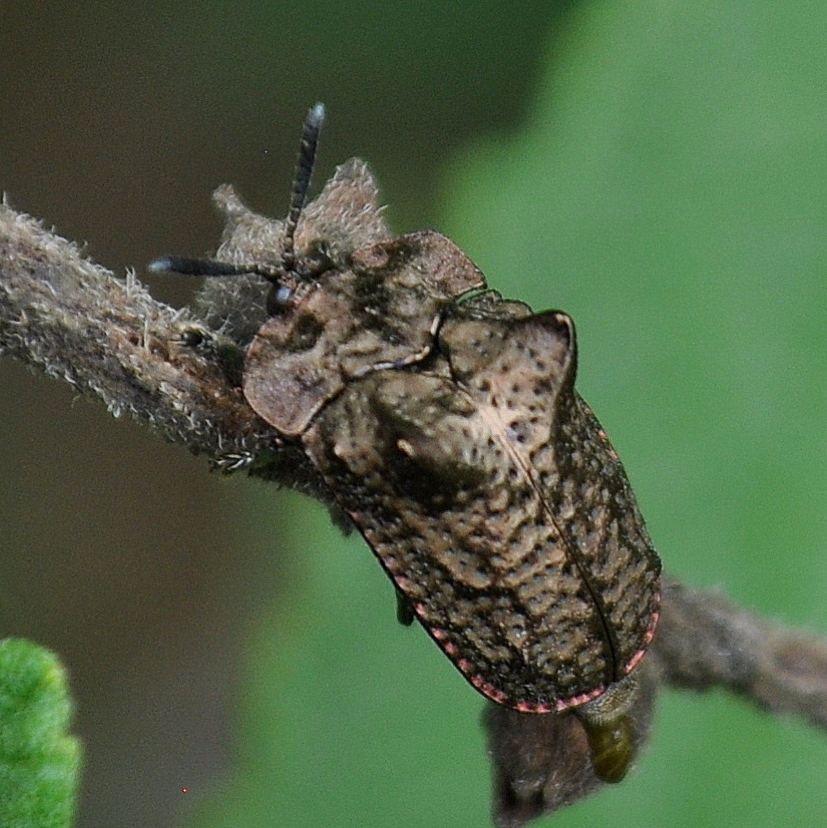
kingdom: Animalia
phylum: Arthropoda
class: Insecta
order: Coleoptera
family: Chrysomelidae
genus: Chlamydocassis
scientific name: Chlamydocassis laticollis
